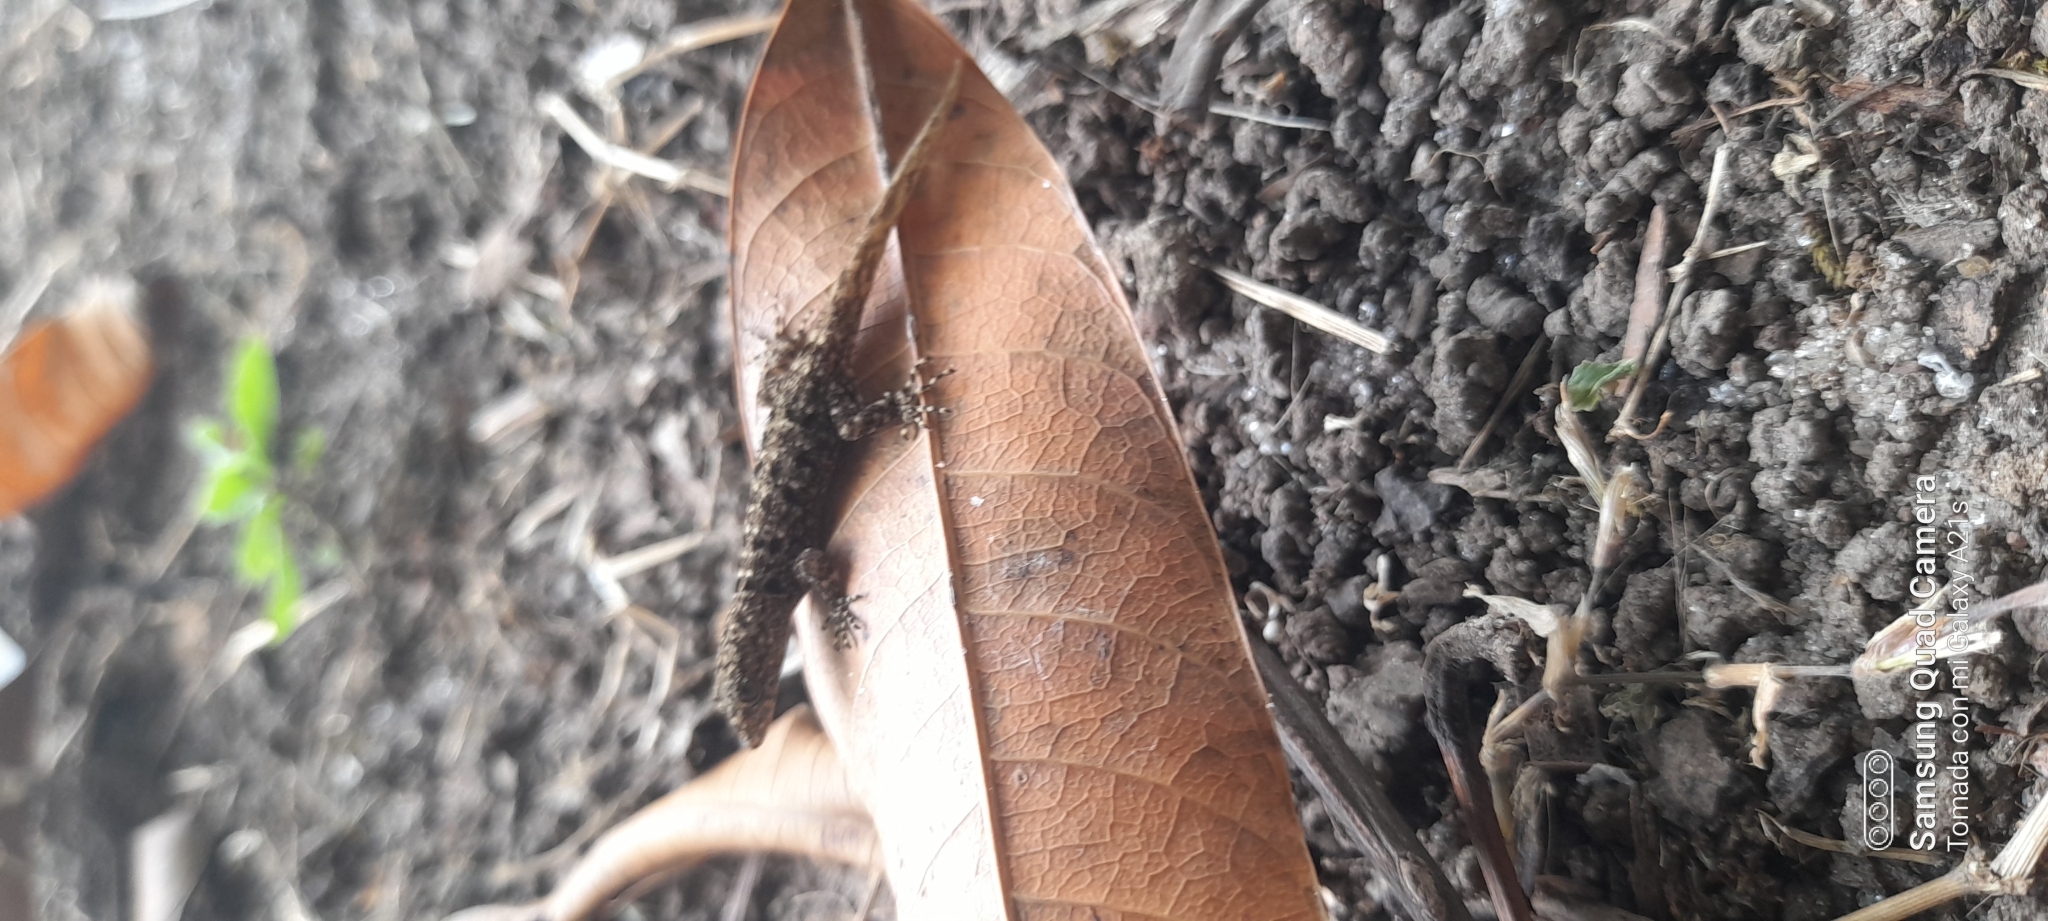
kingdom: Animalia
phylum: Chordata
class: Squamata
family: Sphaerodactylidae
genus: Gonatodes
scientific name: Gonatodes albogularis
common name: Yellow-headed gecko
